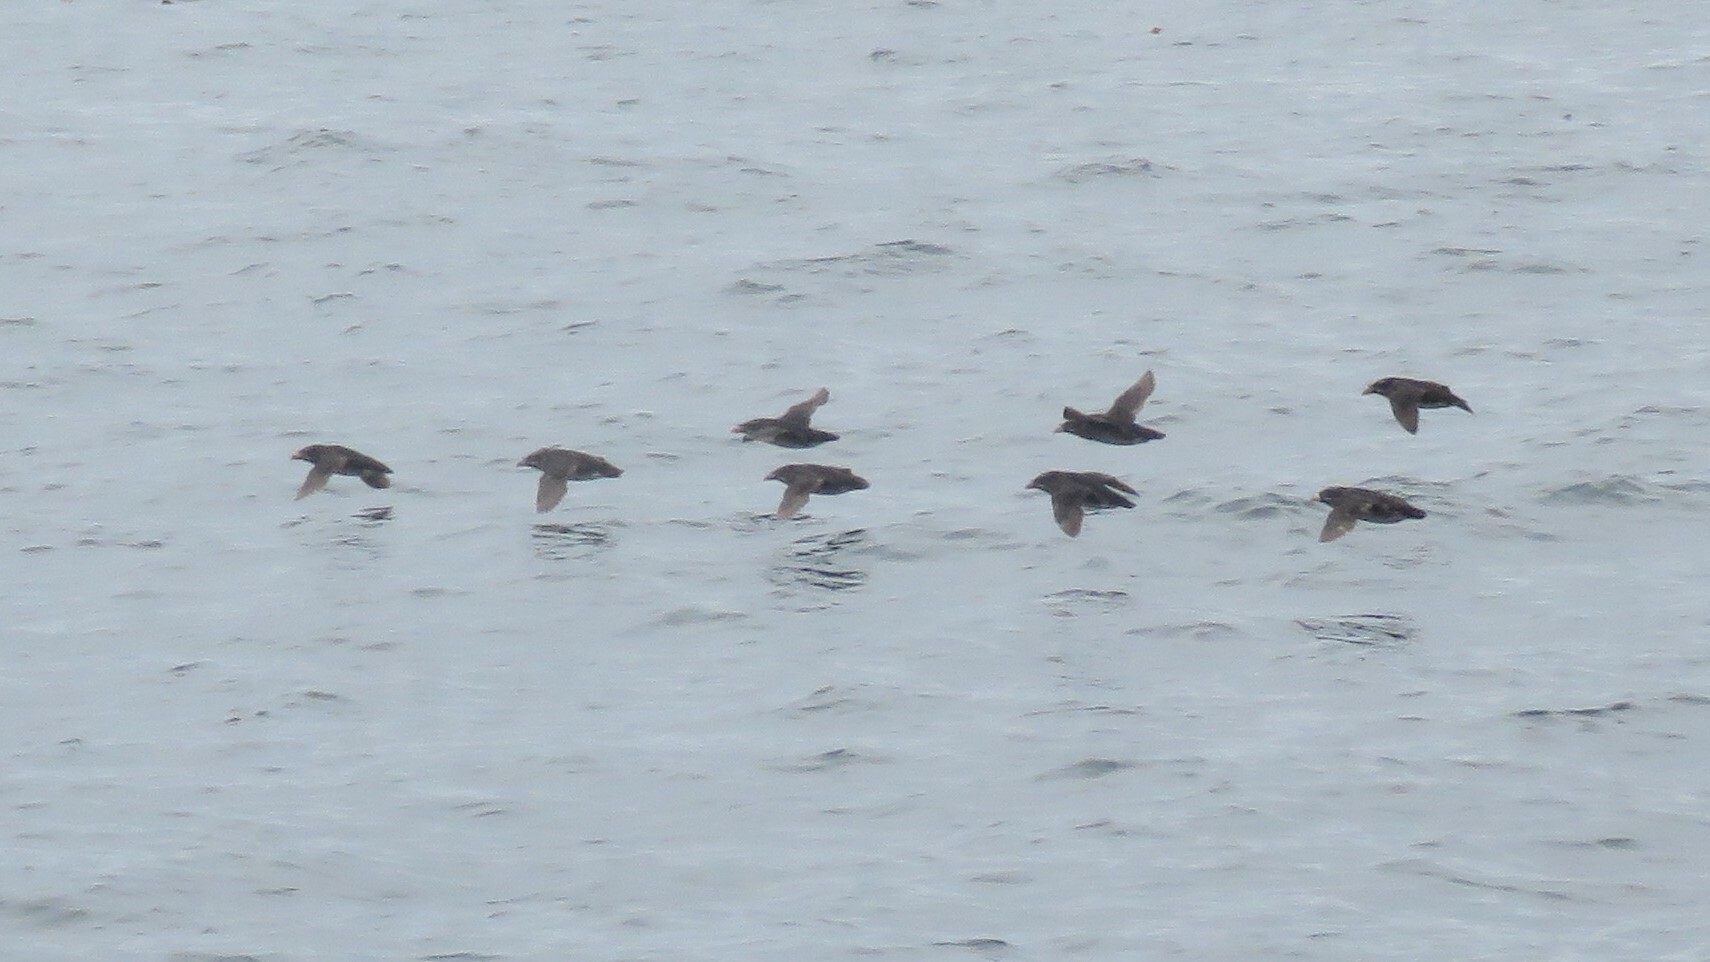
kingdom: Animalia
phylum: Chordata
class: Aves
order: Charadriiformes
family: Alcidae
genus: Cerorhinca
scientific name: Cerorhinca monocerata
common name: Rhinoceros auklet
